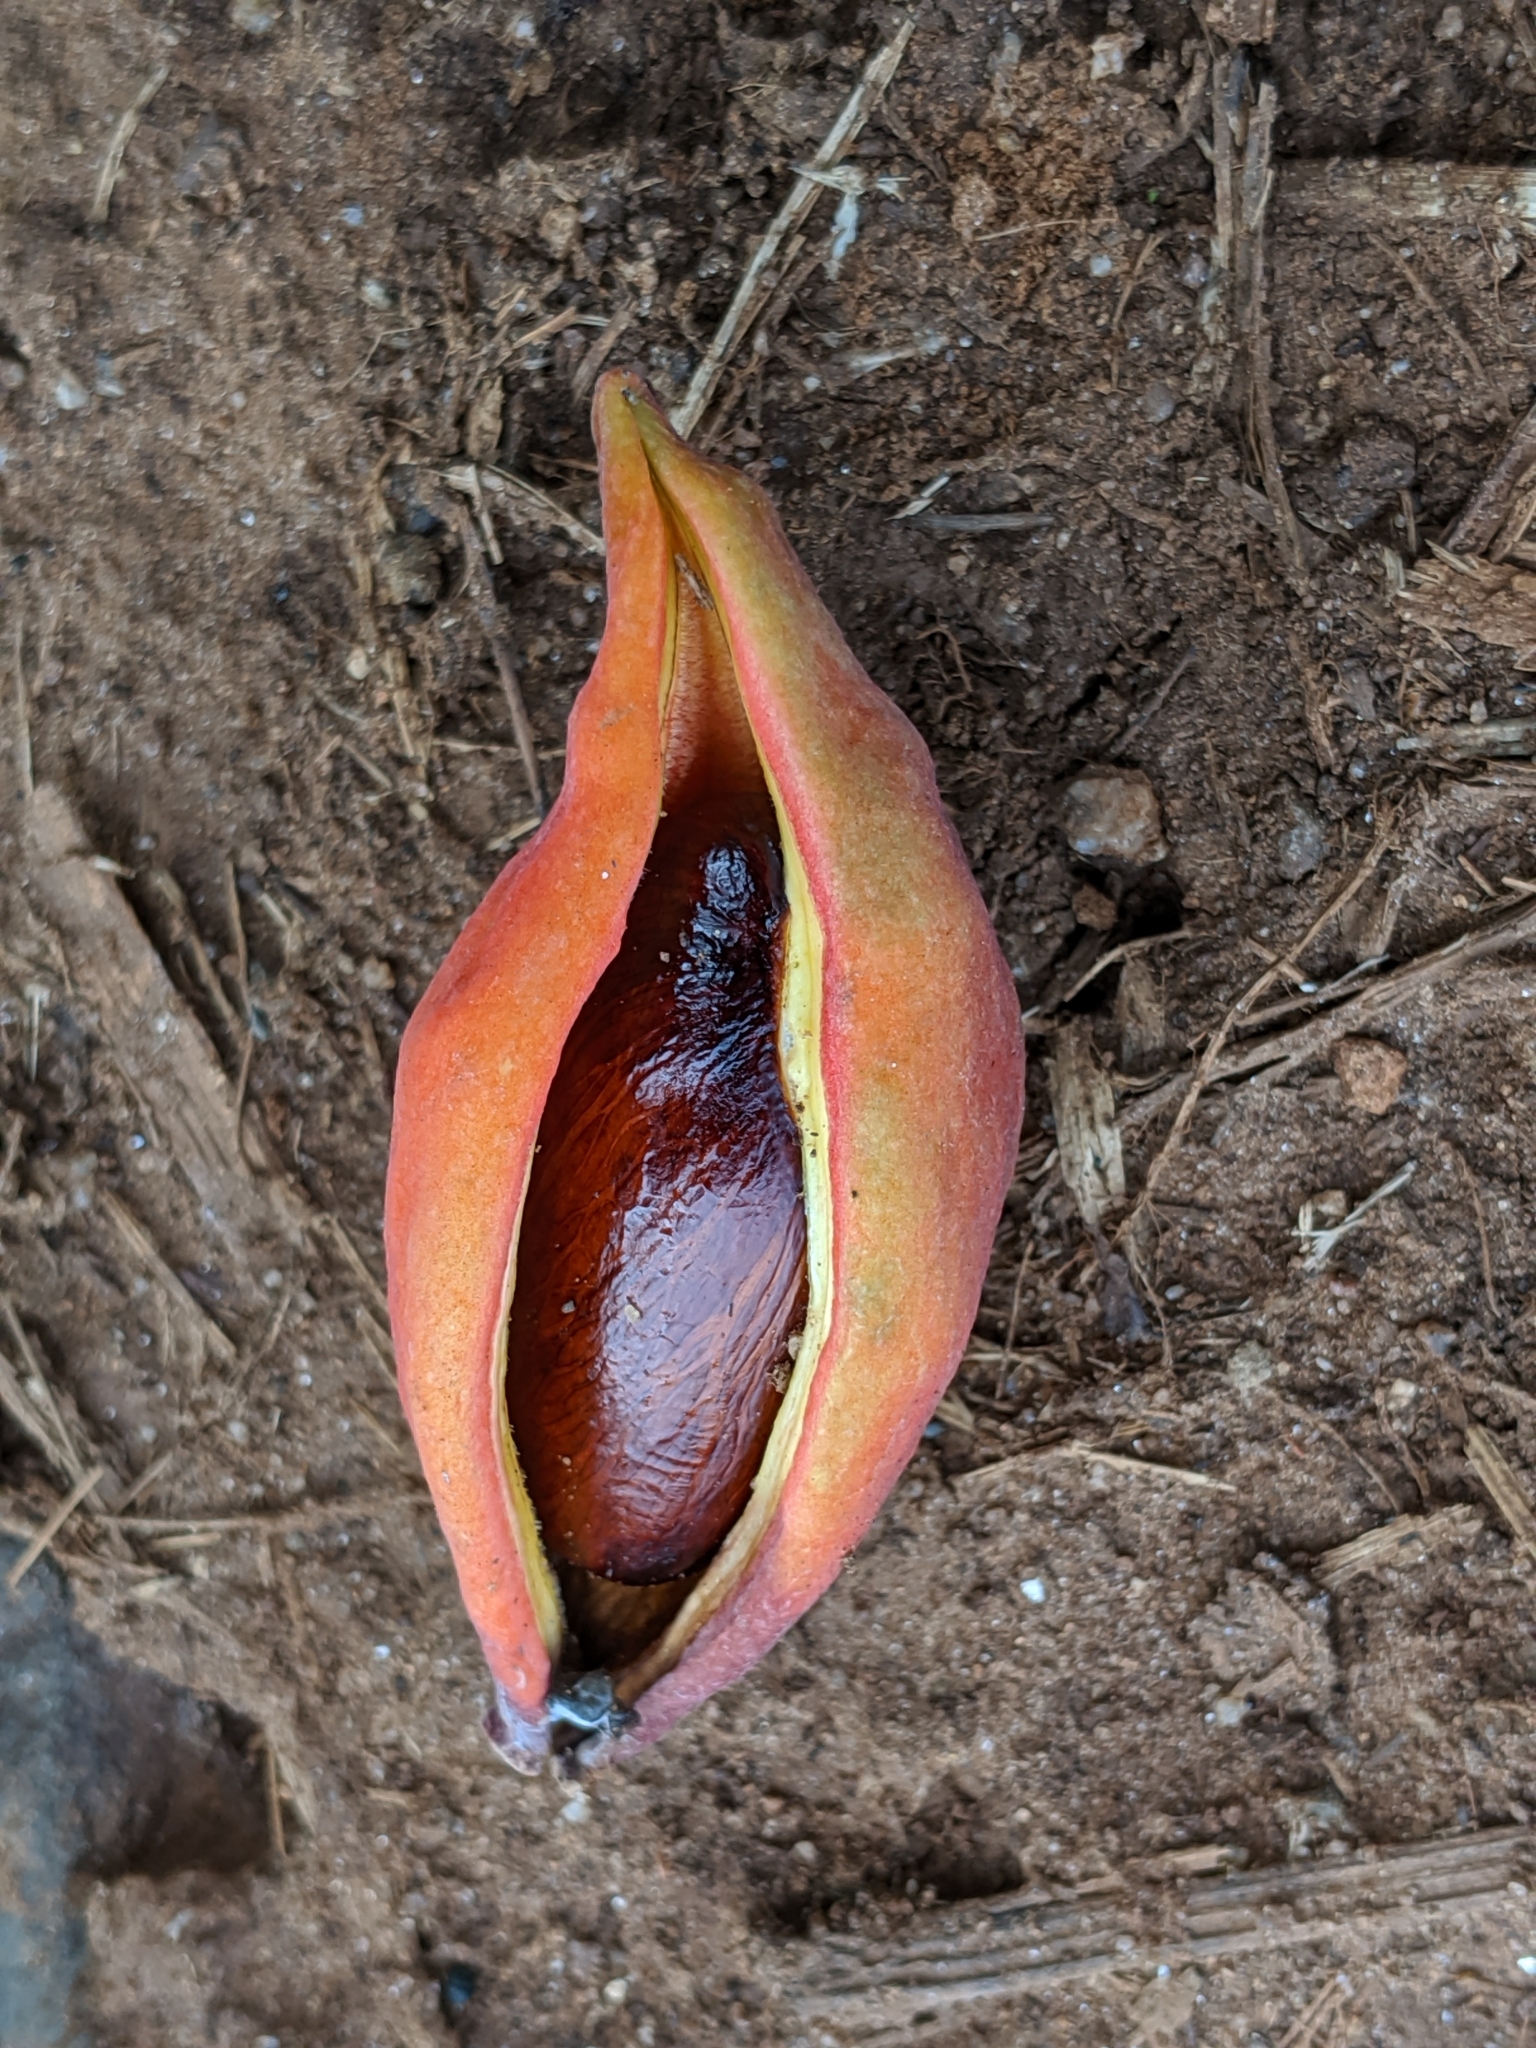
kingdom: Plantae
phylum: Tracheophyta
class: Magnoliopsida
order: Malvales
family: Malvaceae
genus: Sterculia
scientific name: Sterculia monosperma
